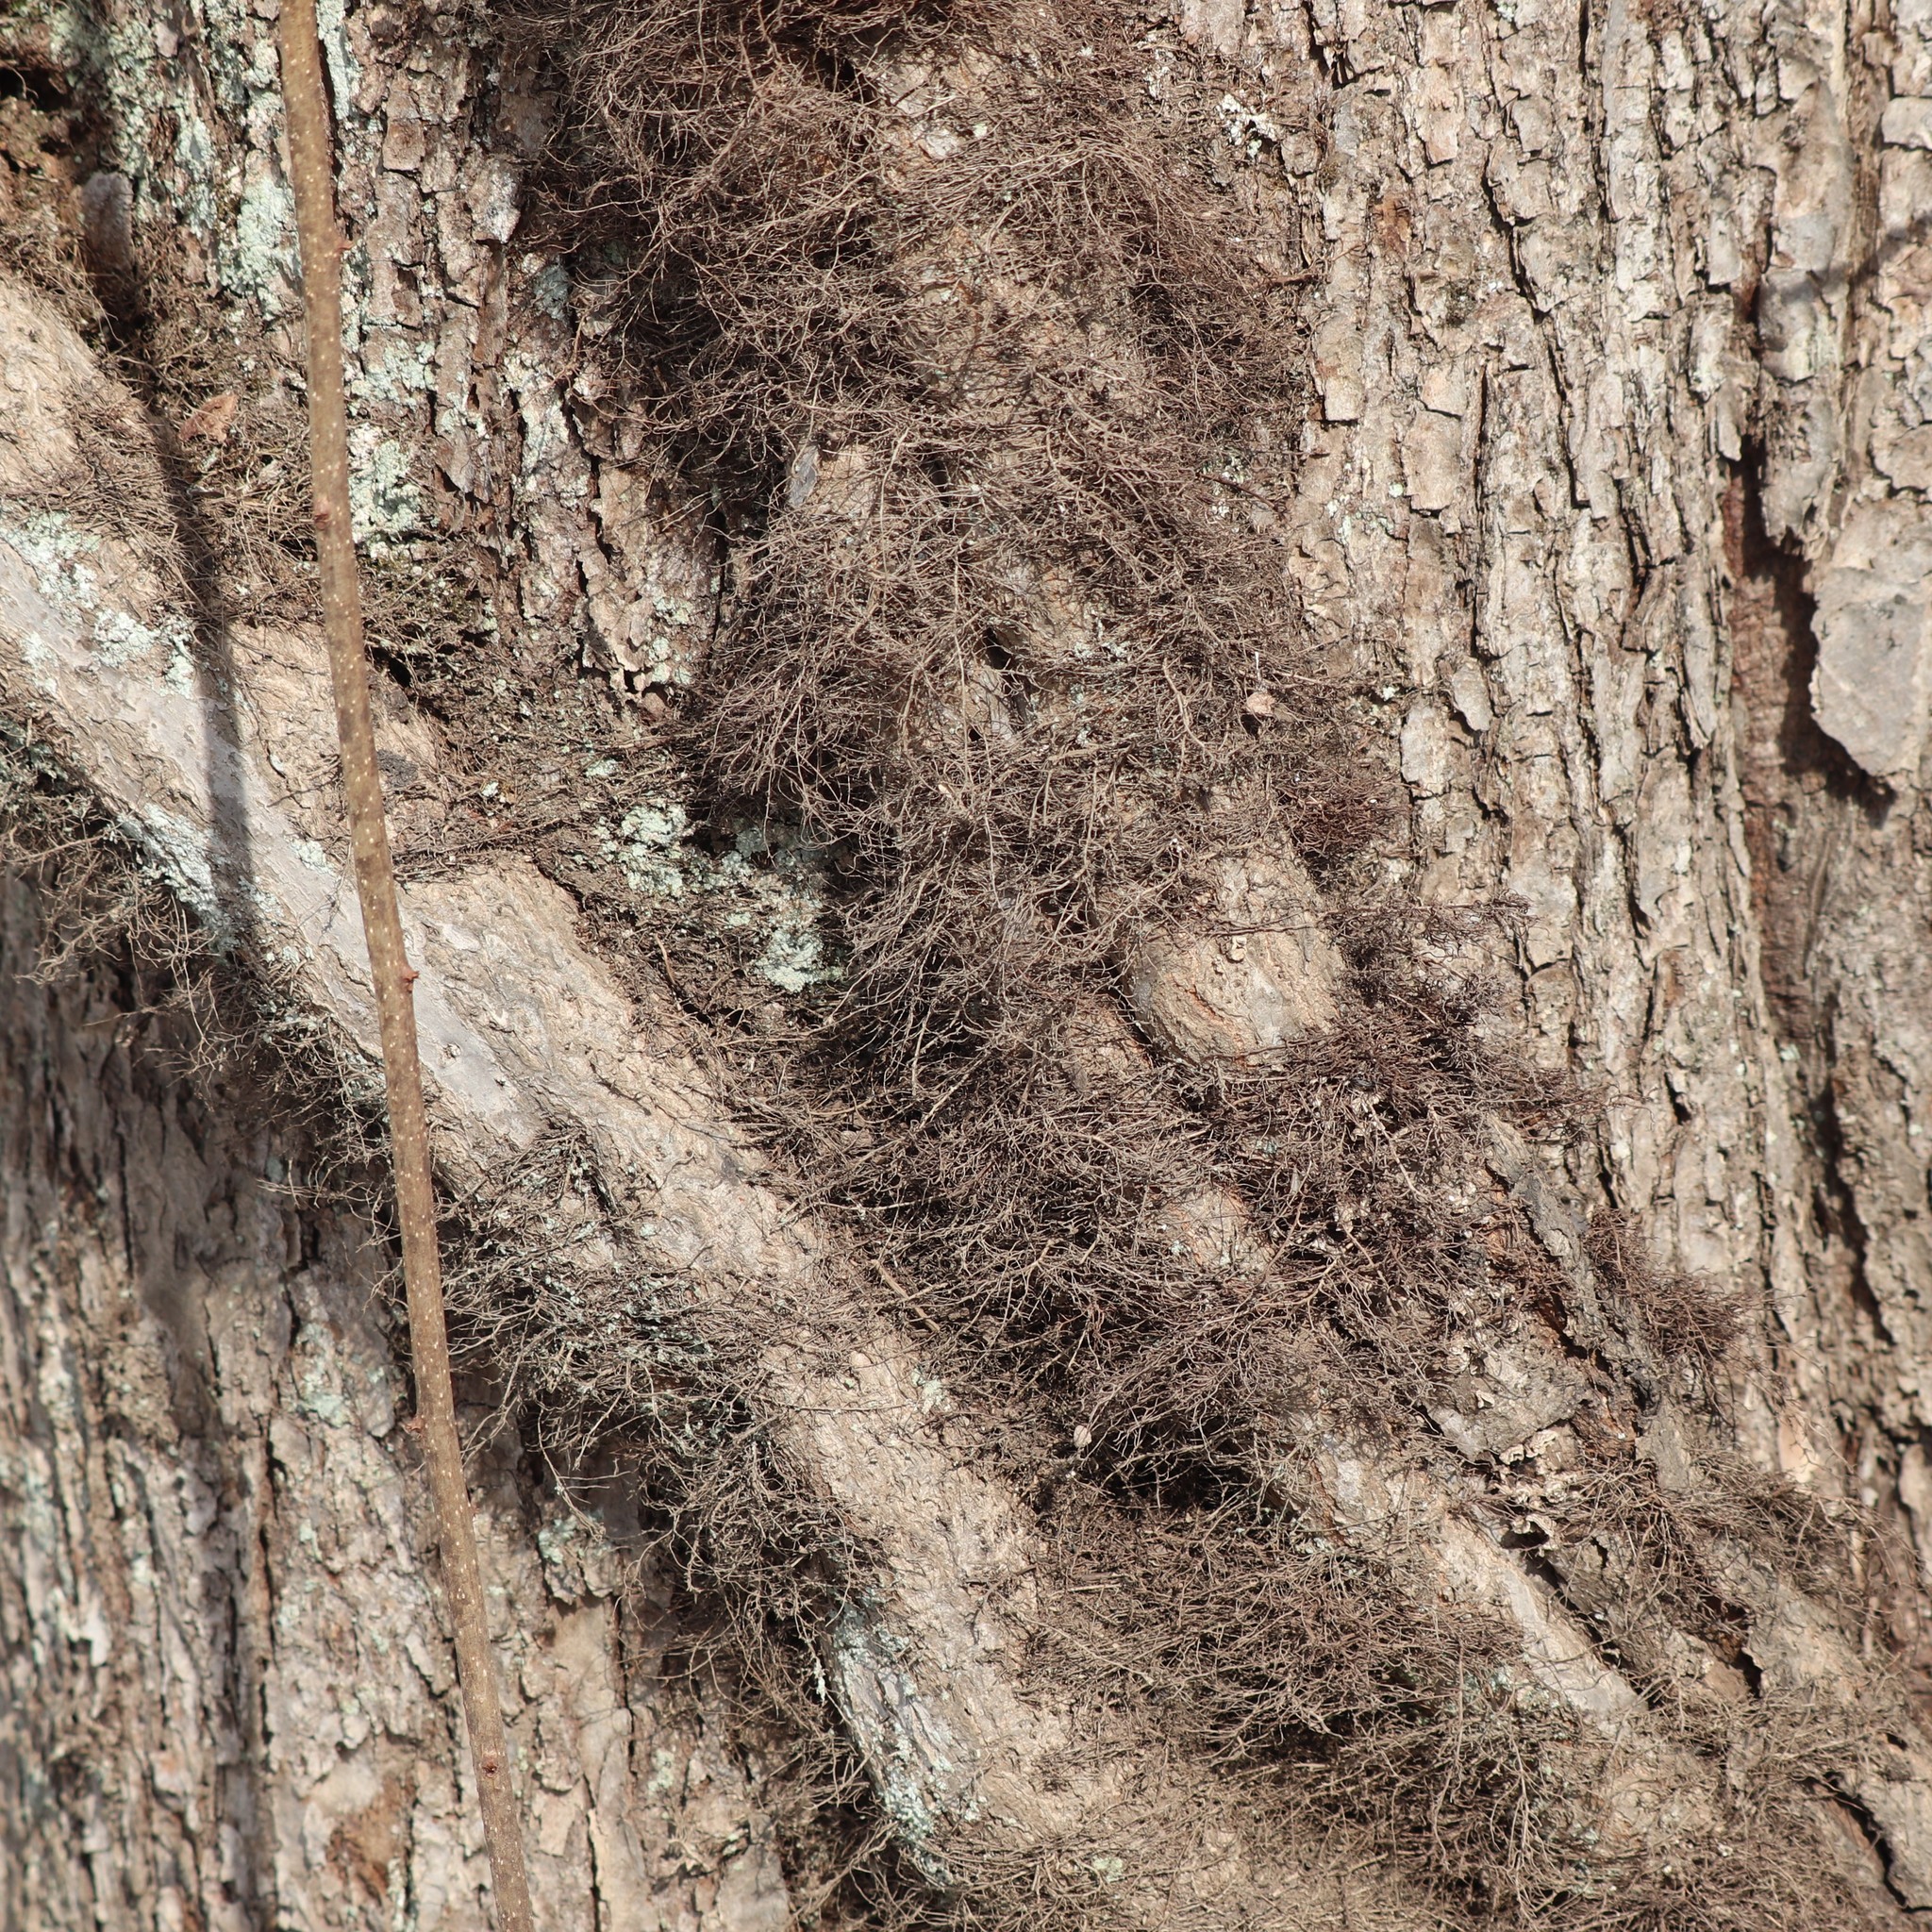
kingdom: Plantae
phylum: Tracheophyta
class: Magnoliopsida
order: Sapindales
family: Anacardiaceae
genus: Toxicodendron
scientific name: Toxicodendron radicans
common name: Poison ivy
